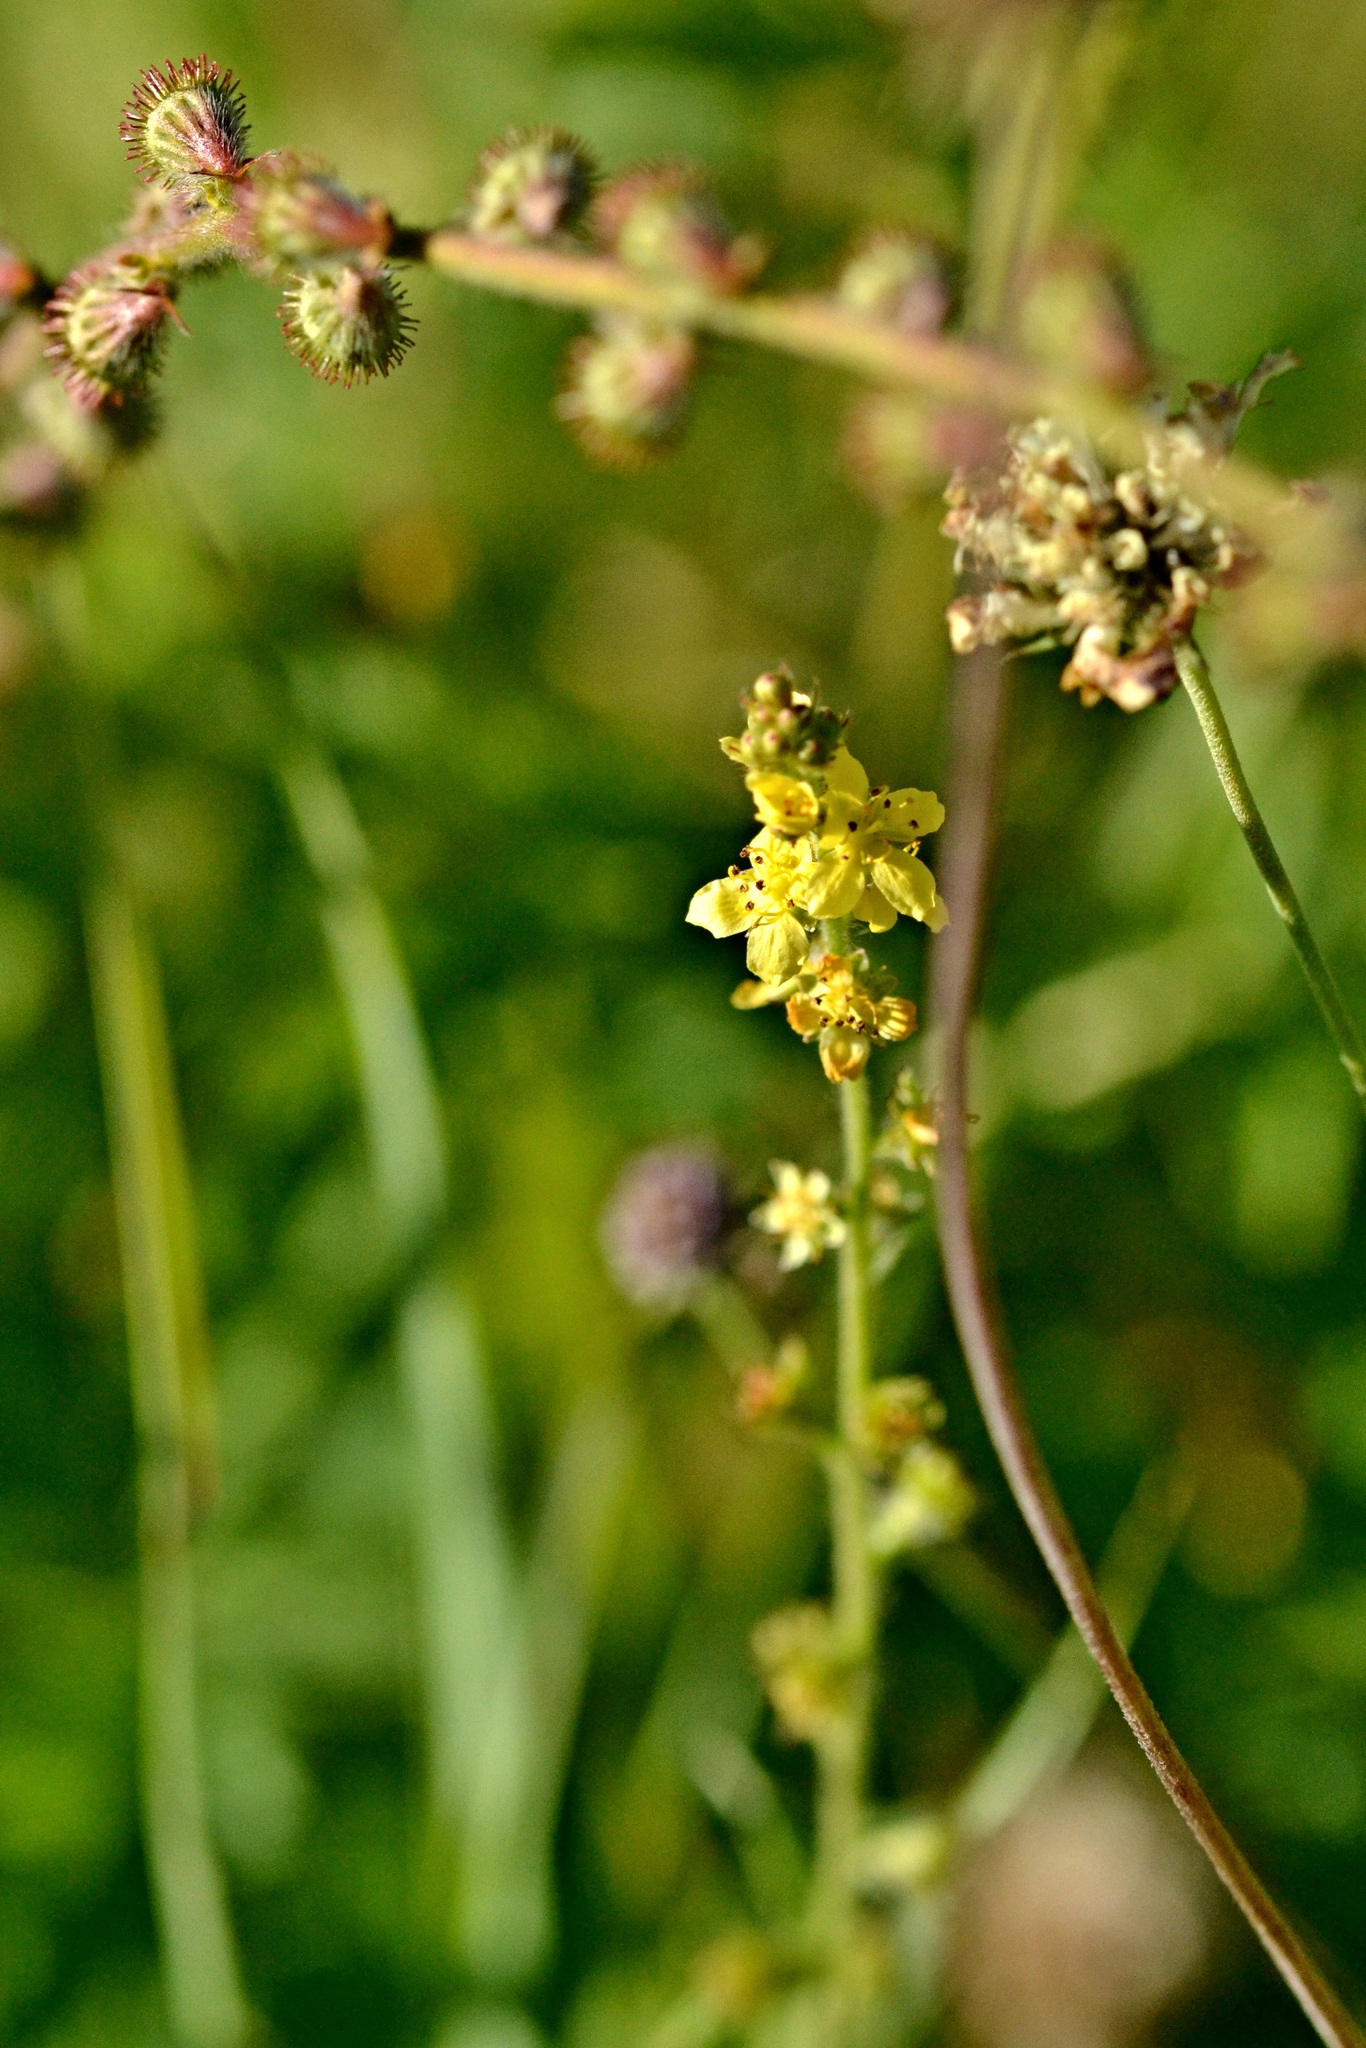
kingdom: Plantae
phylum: Tracheophyta
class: Magnoliopsida
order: Rosales
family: Rosaceae
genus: Agrimonia
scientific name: Agrimonia eupatoria
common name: Agrimony
